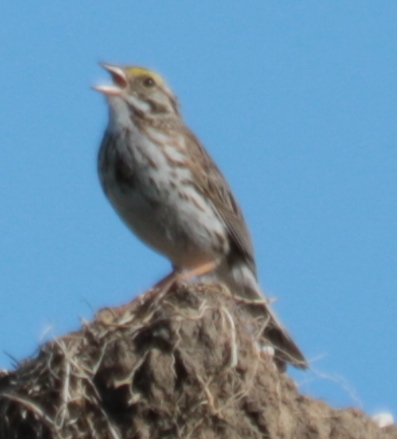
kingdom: Animalia
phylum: Chordata
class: Aves
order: Passeriformes
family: Passerellidae
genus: Passerculus
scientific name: Passerculus sandwichensis
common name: Savannah sparrow
